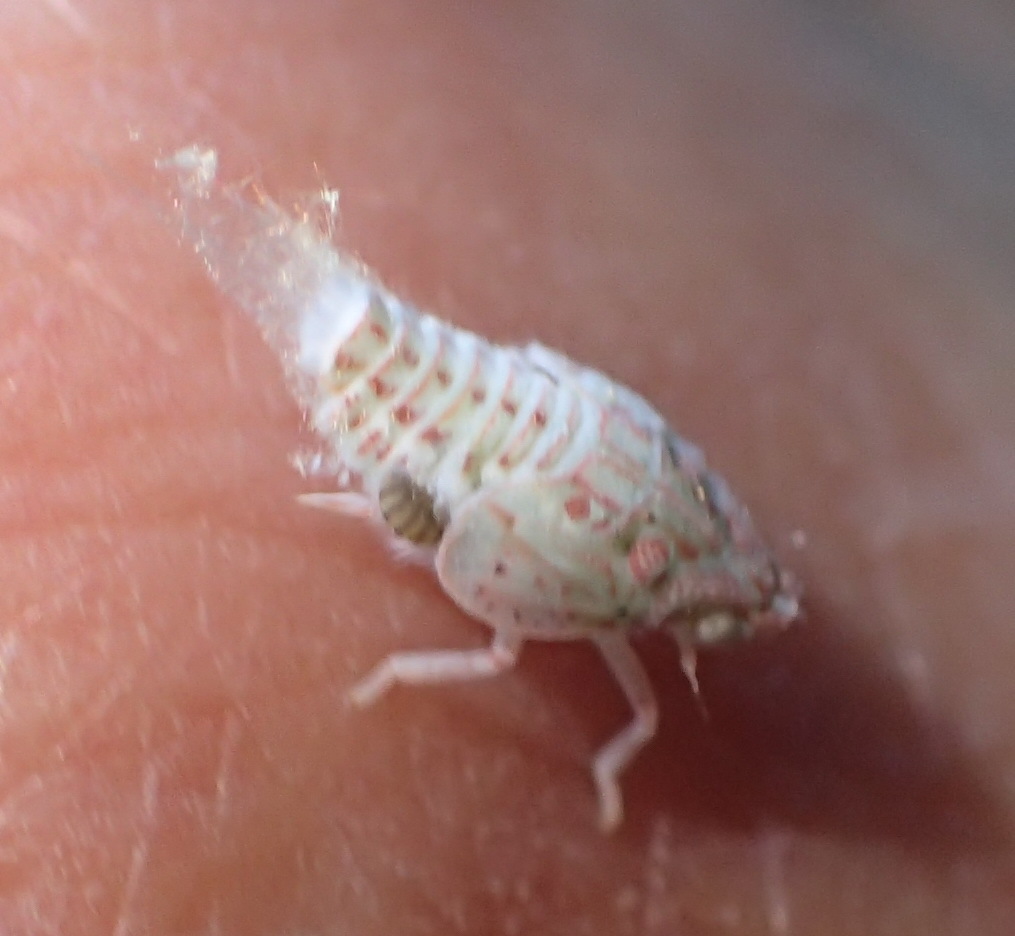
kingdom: Animalia
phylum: Arthropoda
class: Insecta
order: Hemiptera
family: Flatidae
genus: Siphanta
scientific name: Siphanta acuta
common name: Torpedo bug
